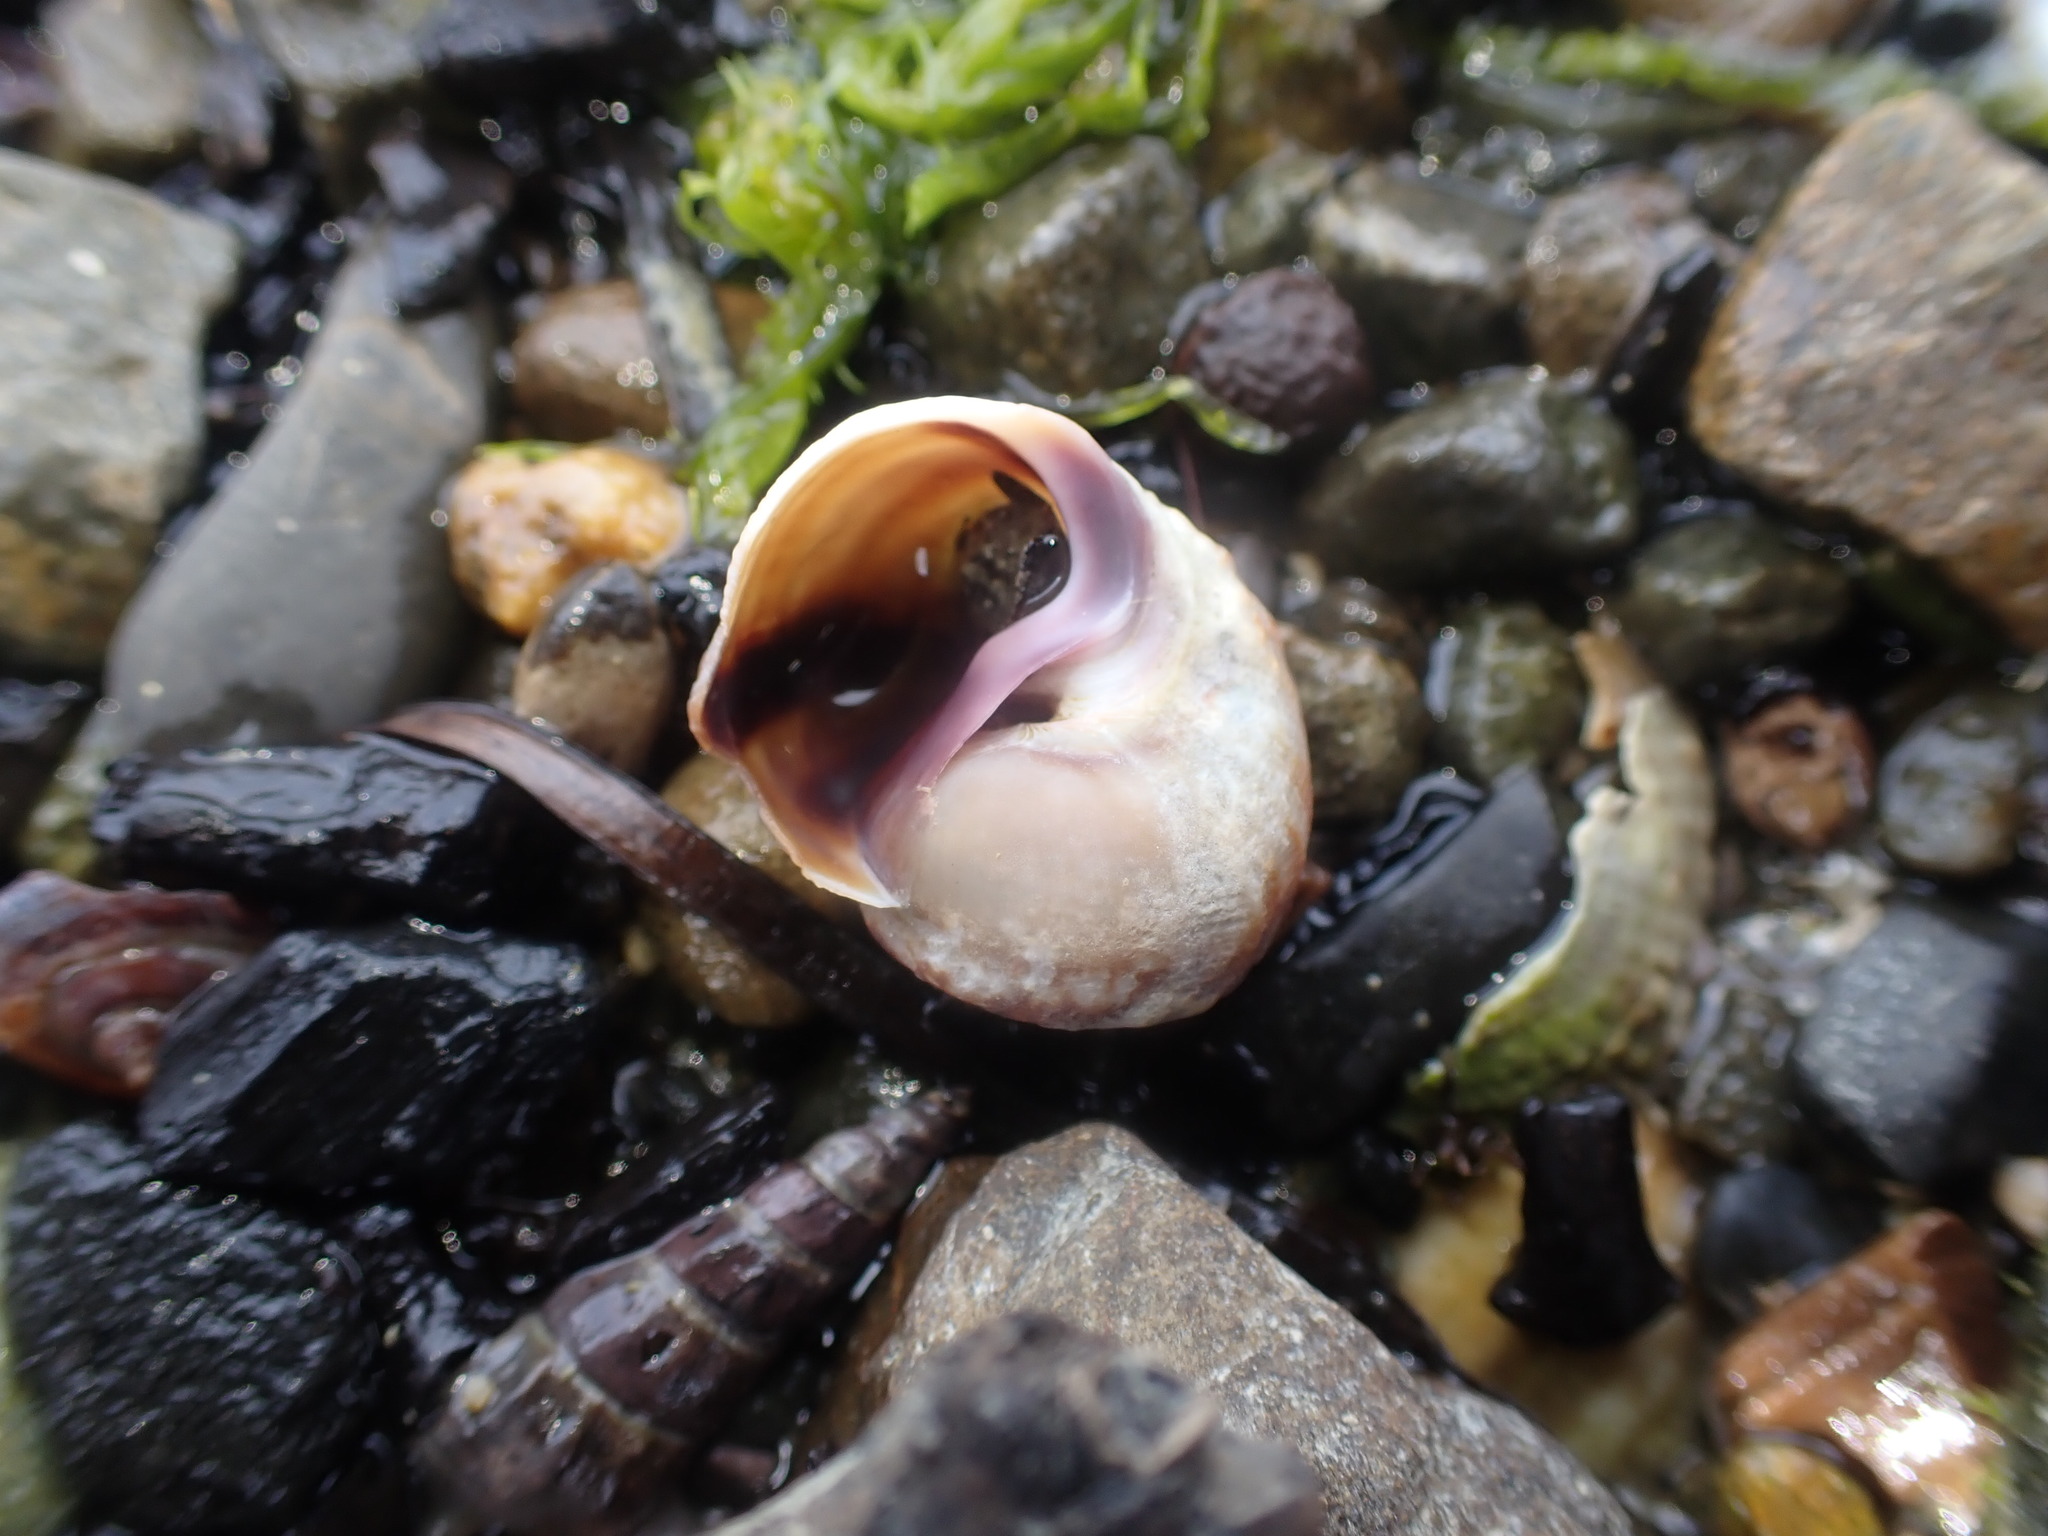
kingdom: Animalia
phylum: Mollusca
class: Gastropoda
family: Amphibolidae
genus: Amphibola
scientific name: Amphibola crenata
